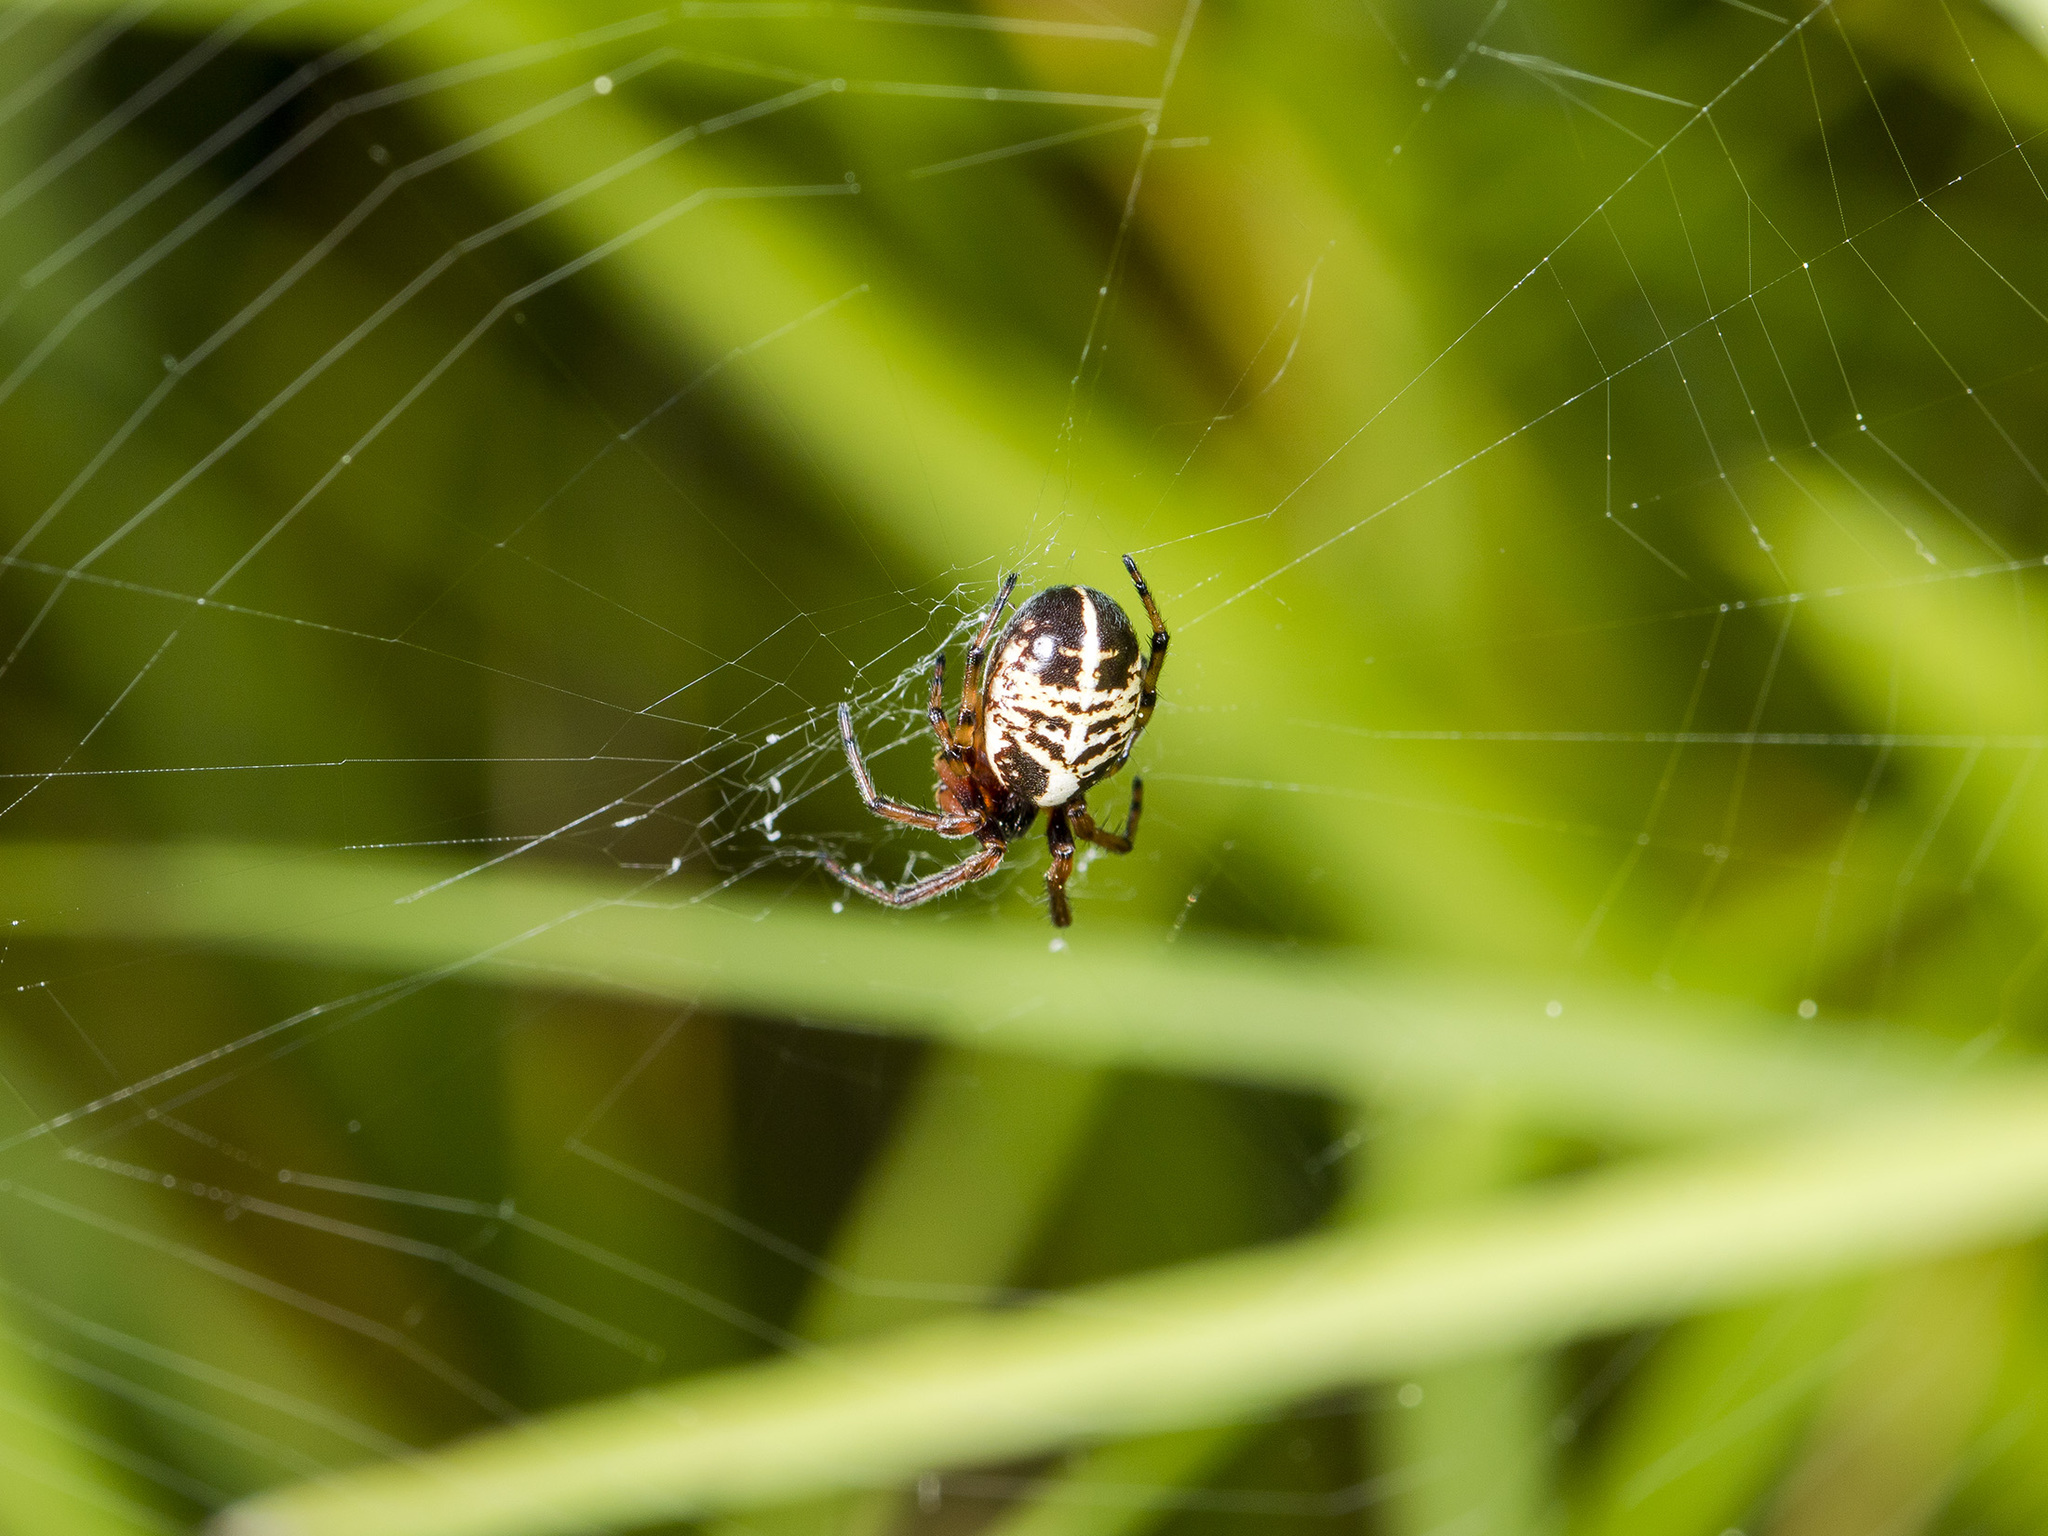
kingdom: Animalia
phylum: Arthropoda
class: Arachnida
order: Araneae
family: Araneidae
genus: Singa
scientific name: Singa hamata
